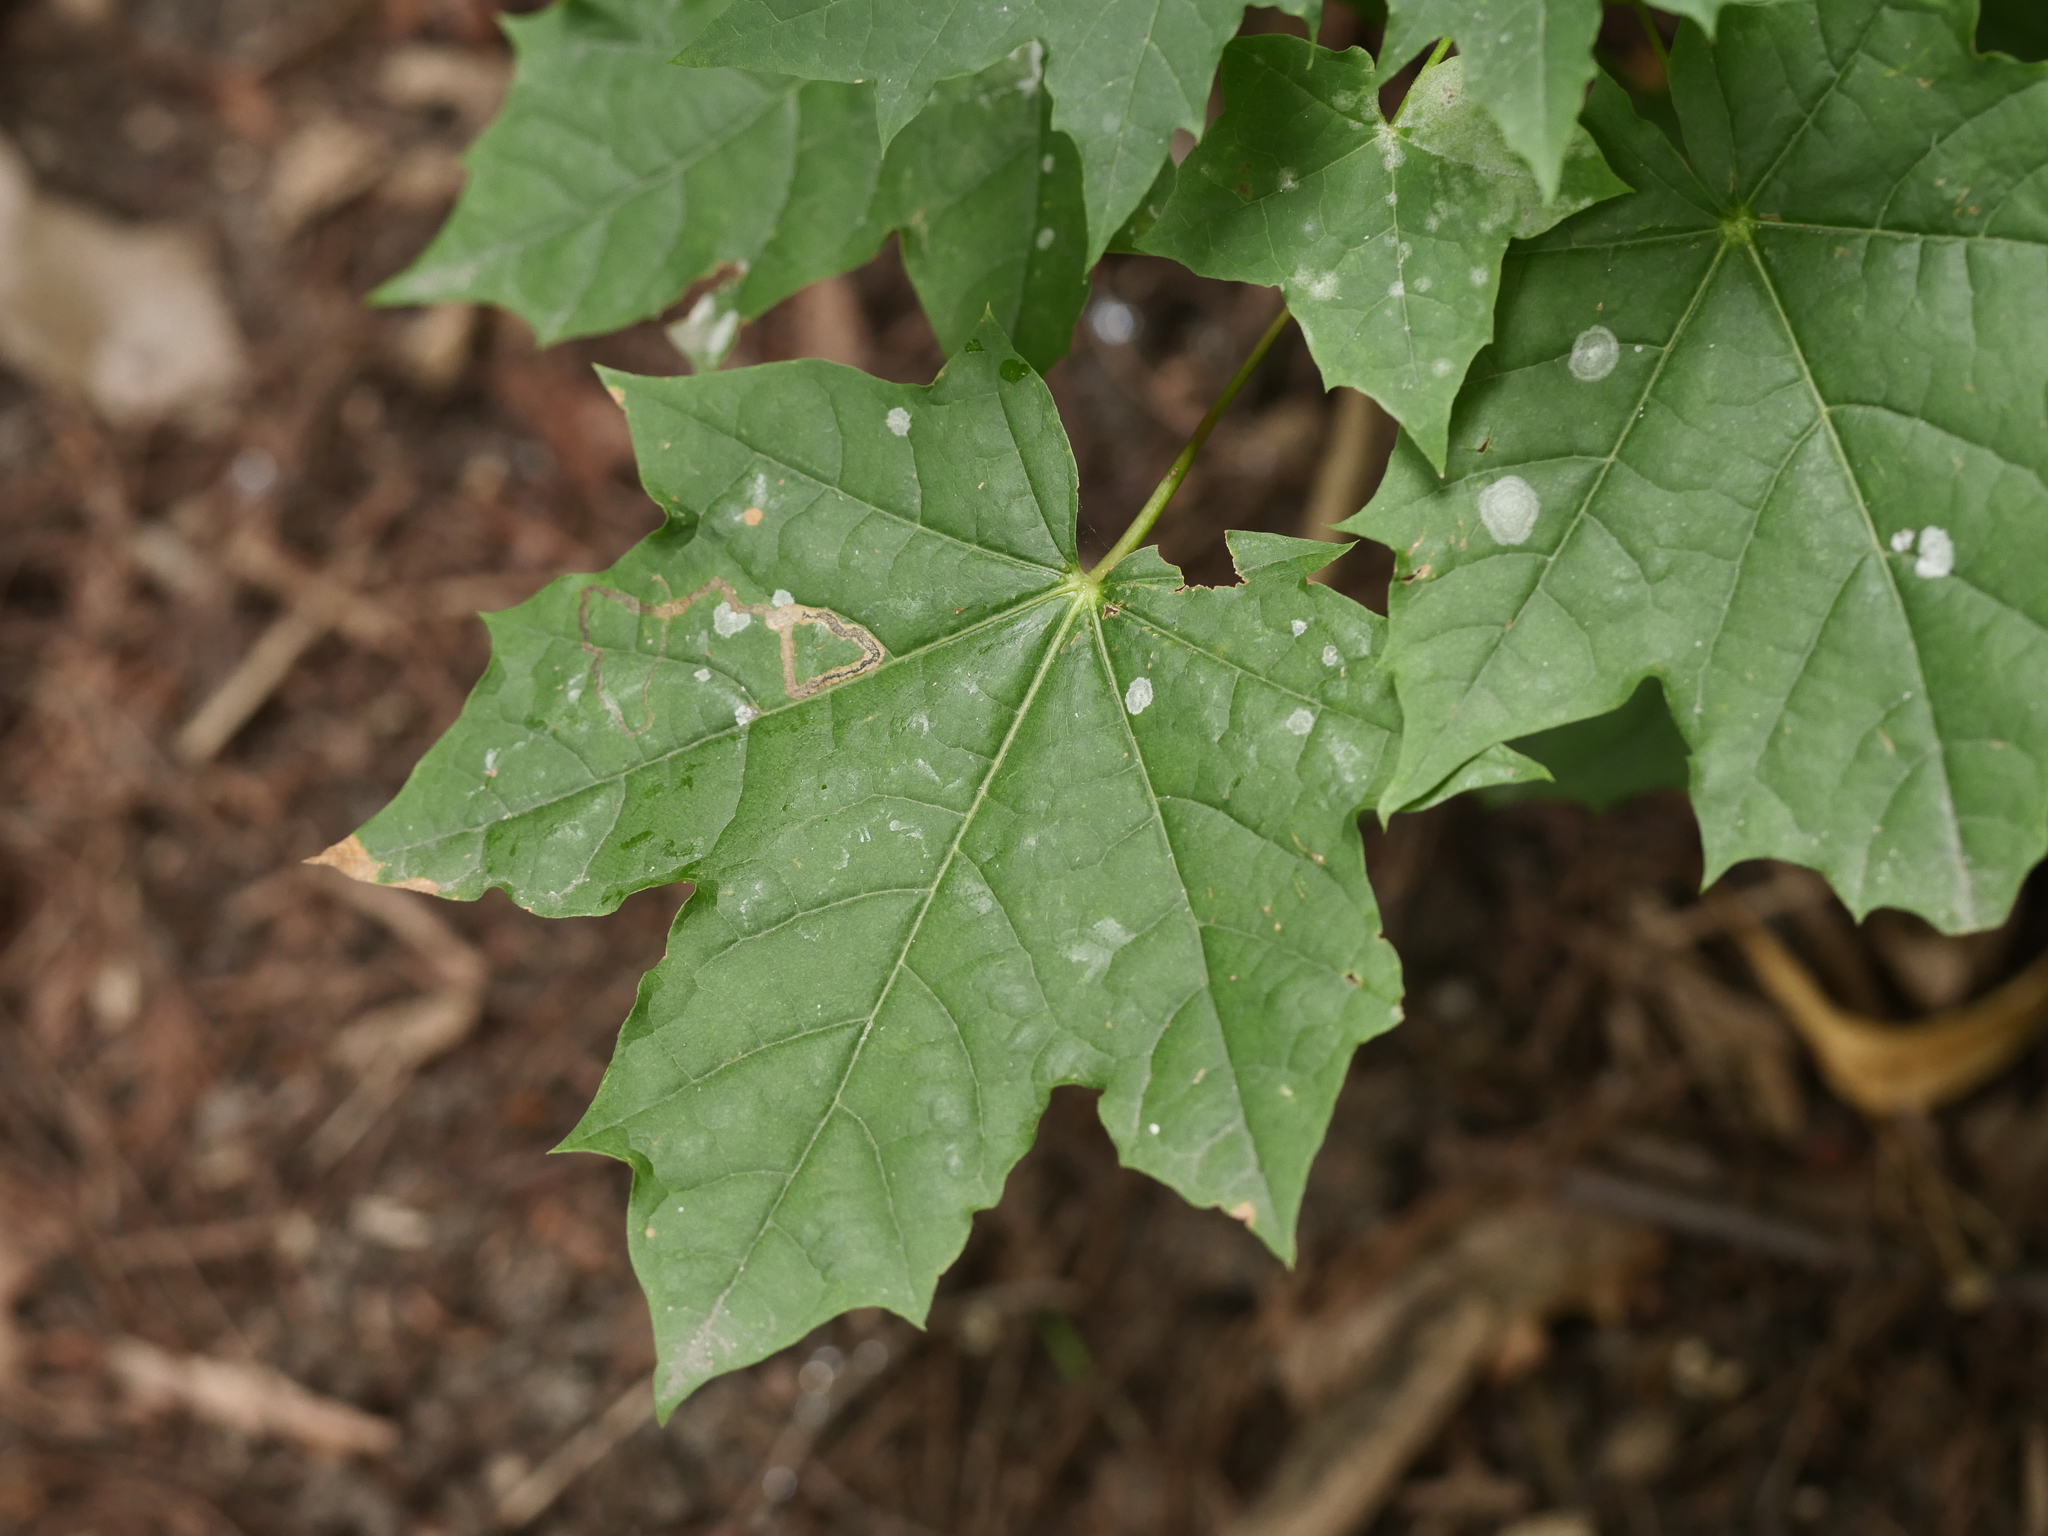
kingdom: Plantae
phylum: Tracheophyta
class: Magnoliopsida
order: Sapindales
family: Sapindaceae
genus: Acer
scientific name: Acer platanoides
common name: Norway maple
